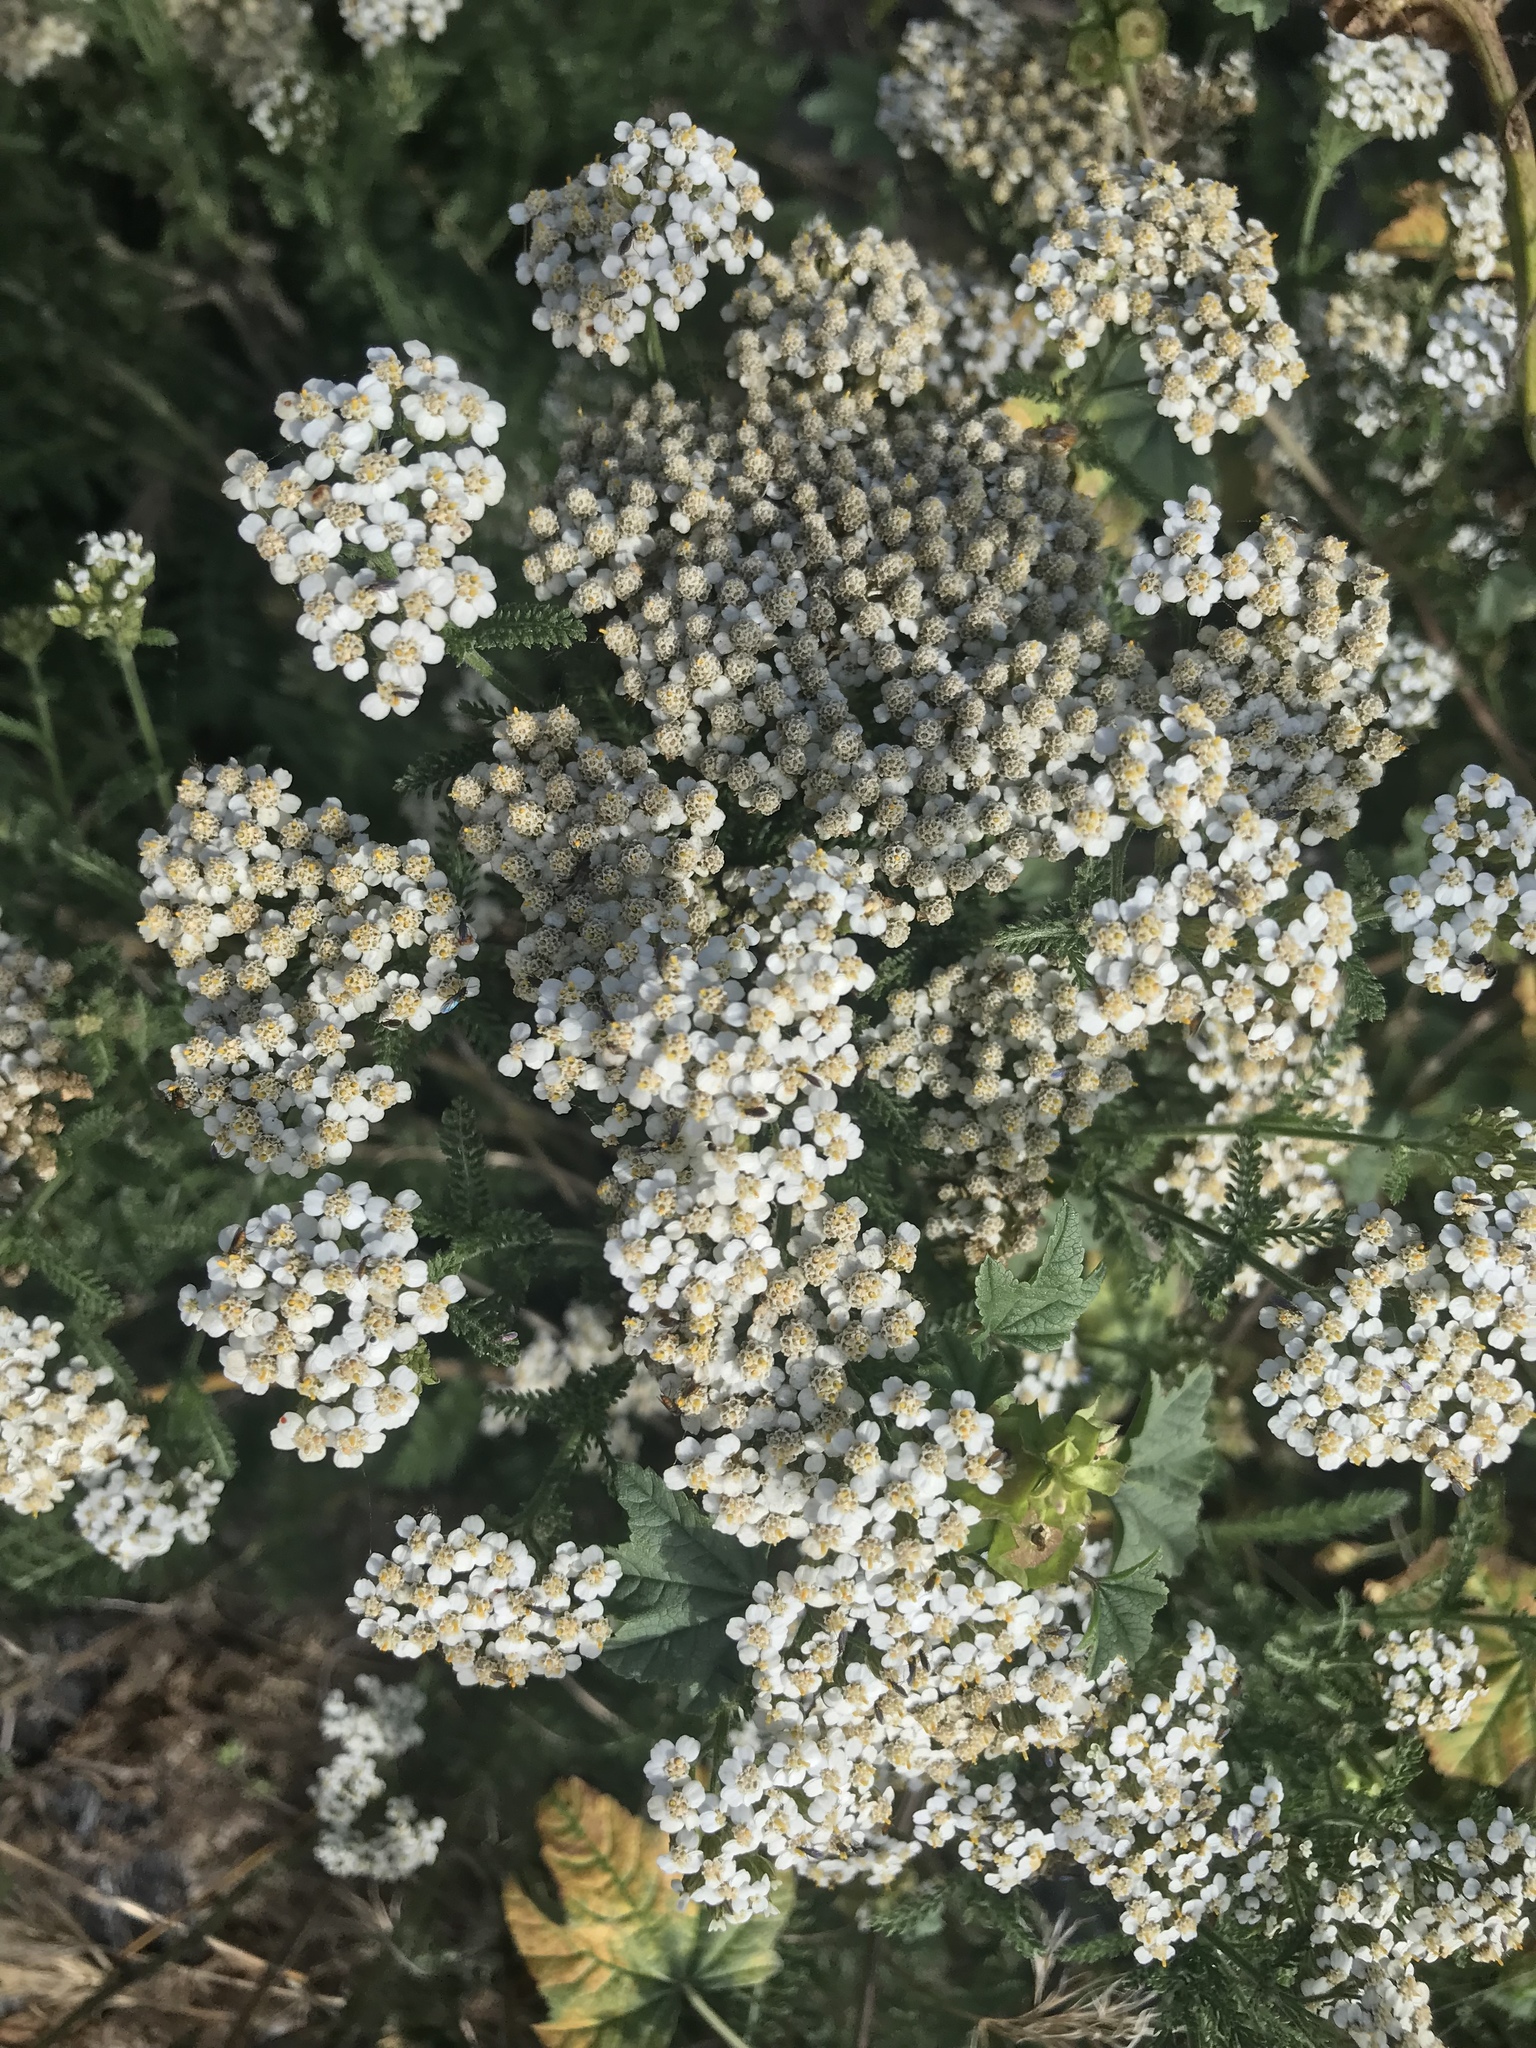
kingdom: Plantae
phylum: Tracheophyta
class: Magnoliopsida
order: Asterales
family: Asteraceae
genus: Achillea
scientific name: Achillea millefolium
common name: Yarrow
